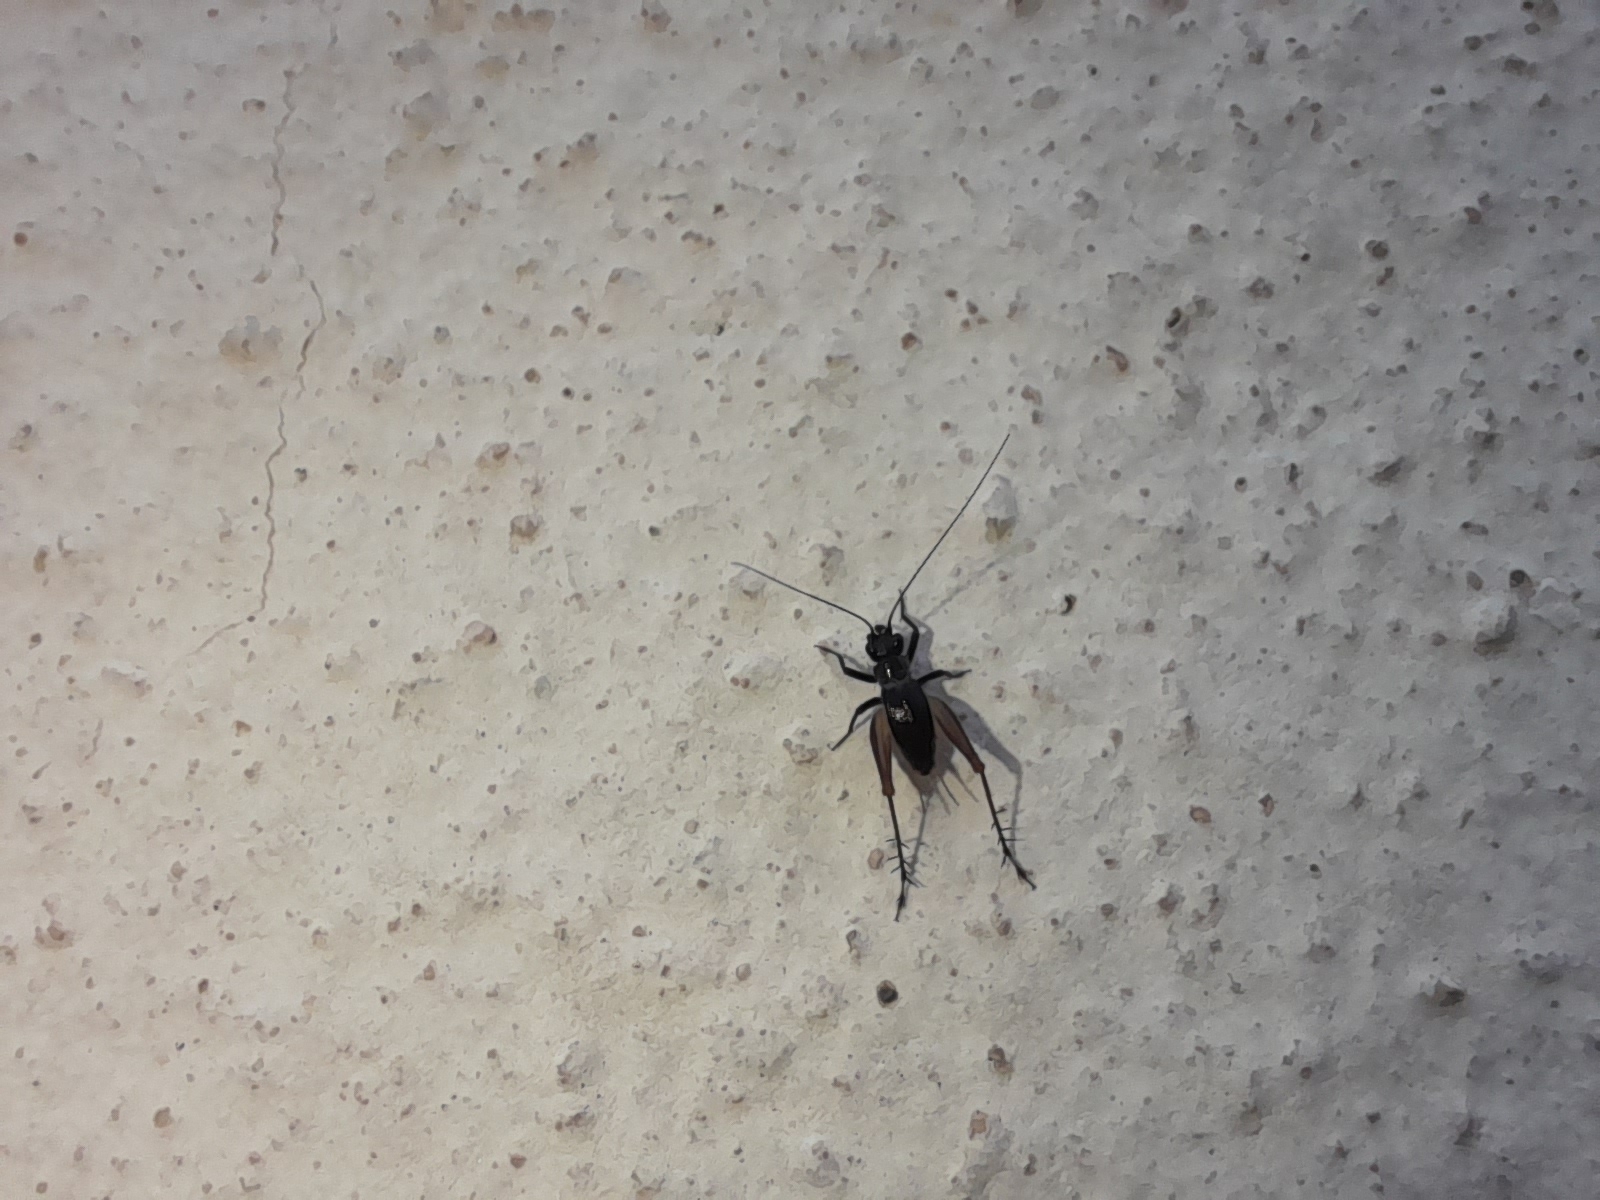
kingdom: Animalia
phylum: Arthropoda
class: Insecta
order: Orthoptera
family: Trigonidiidae
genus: Trigonidium
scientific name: Trigonidium cicindeloides
